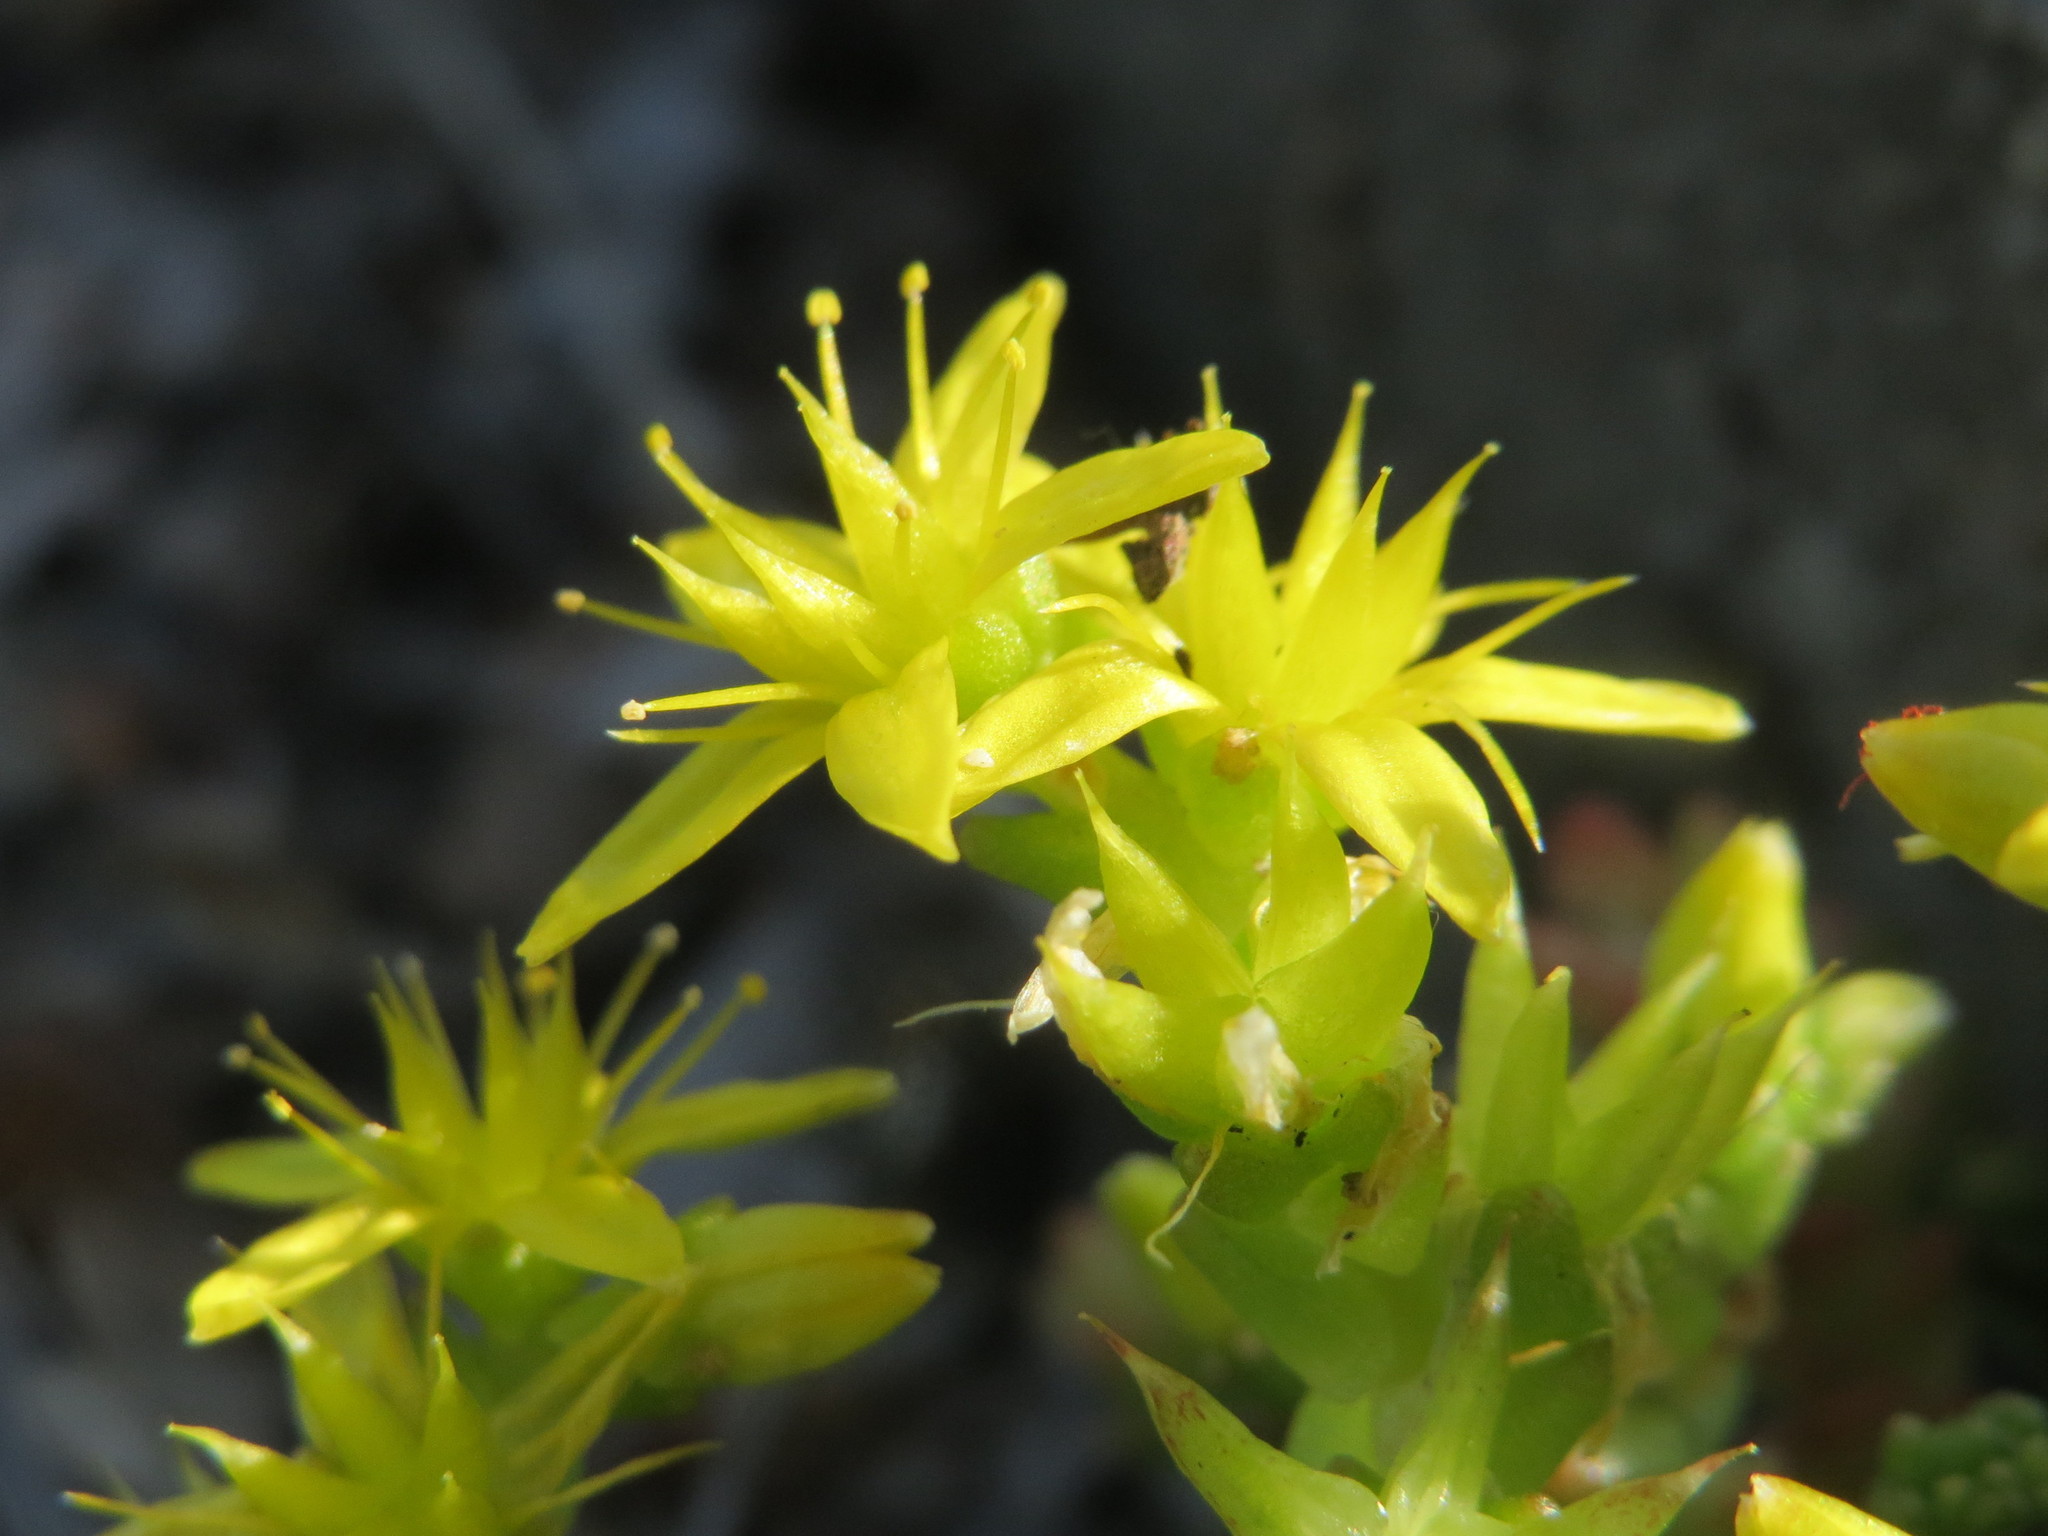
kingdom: Plantae
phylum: Tracheophyta
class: Magnoliopsida
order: Saxifragales
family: Crassulaceae
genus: Sedum
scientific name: Sedum acre
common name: Biting stonecrop
